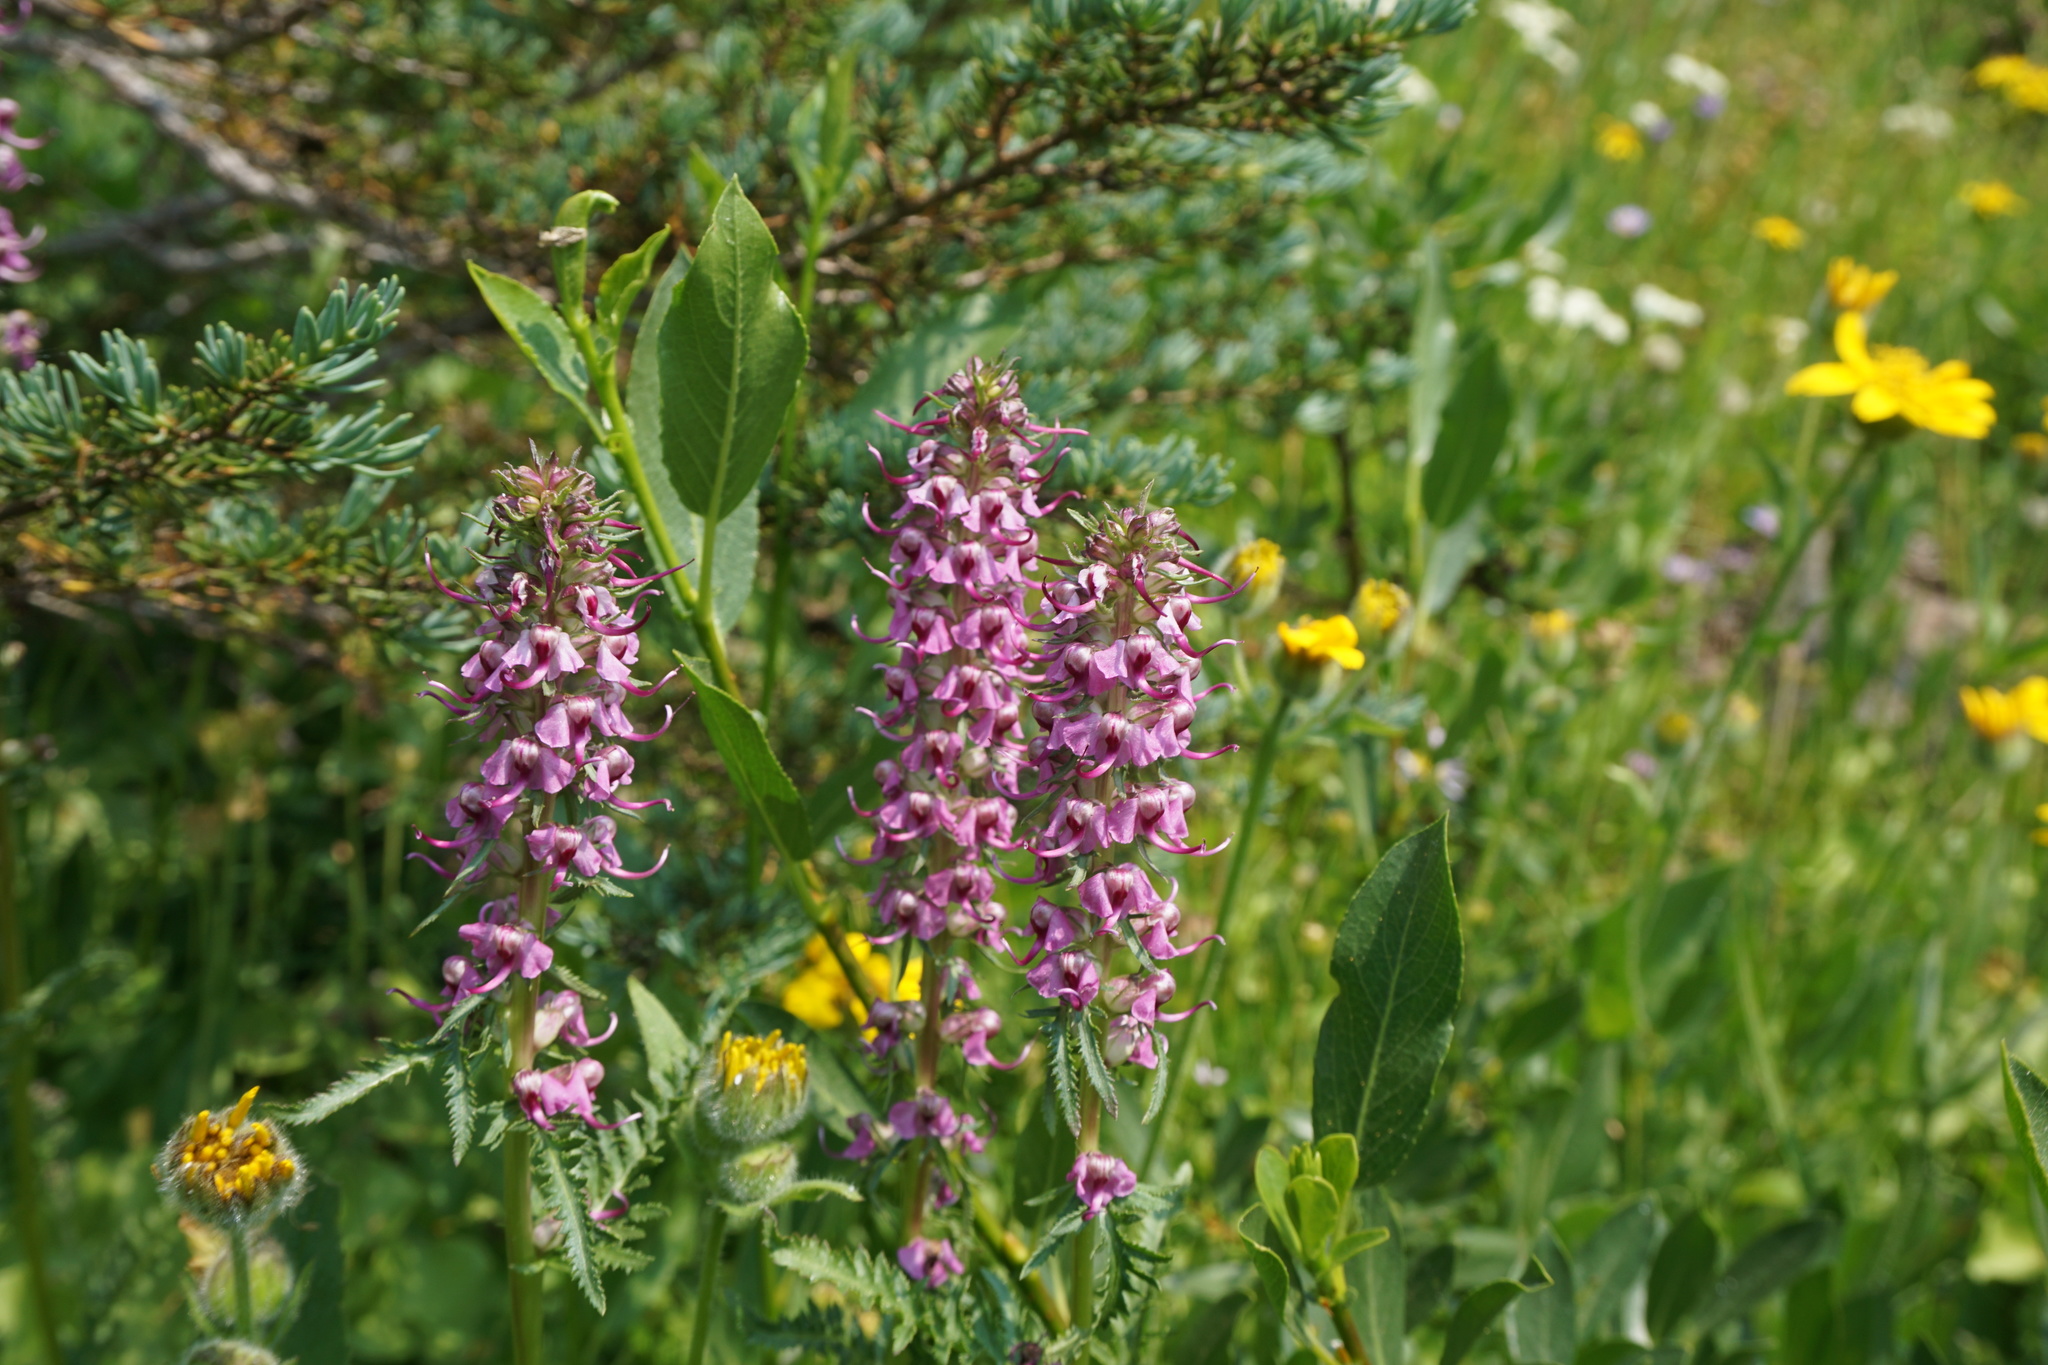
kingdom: Plantae
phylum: Tracheophyta
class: Magnoliopsida
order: Lamiales
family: Orobanchaceae
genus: Pedicularis
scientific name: Pedicularis groenlandica
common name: Elephant's-head
